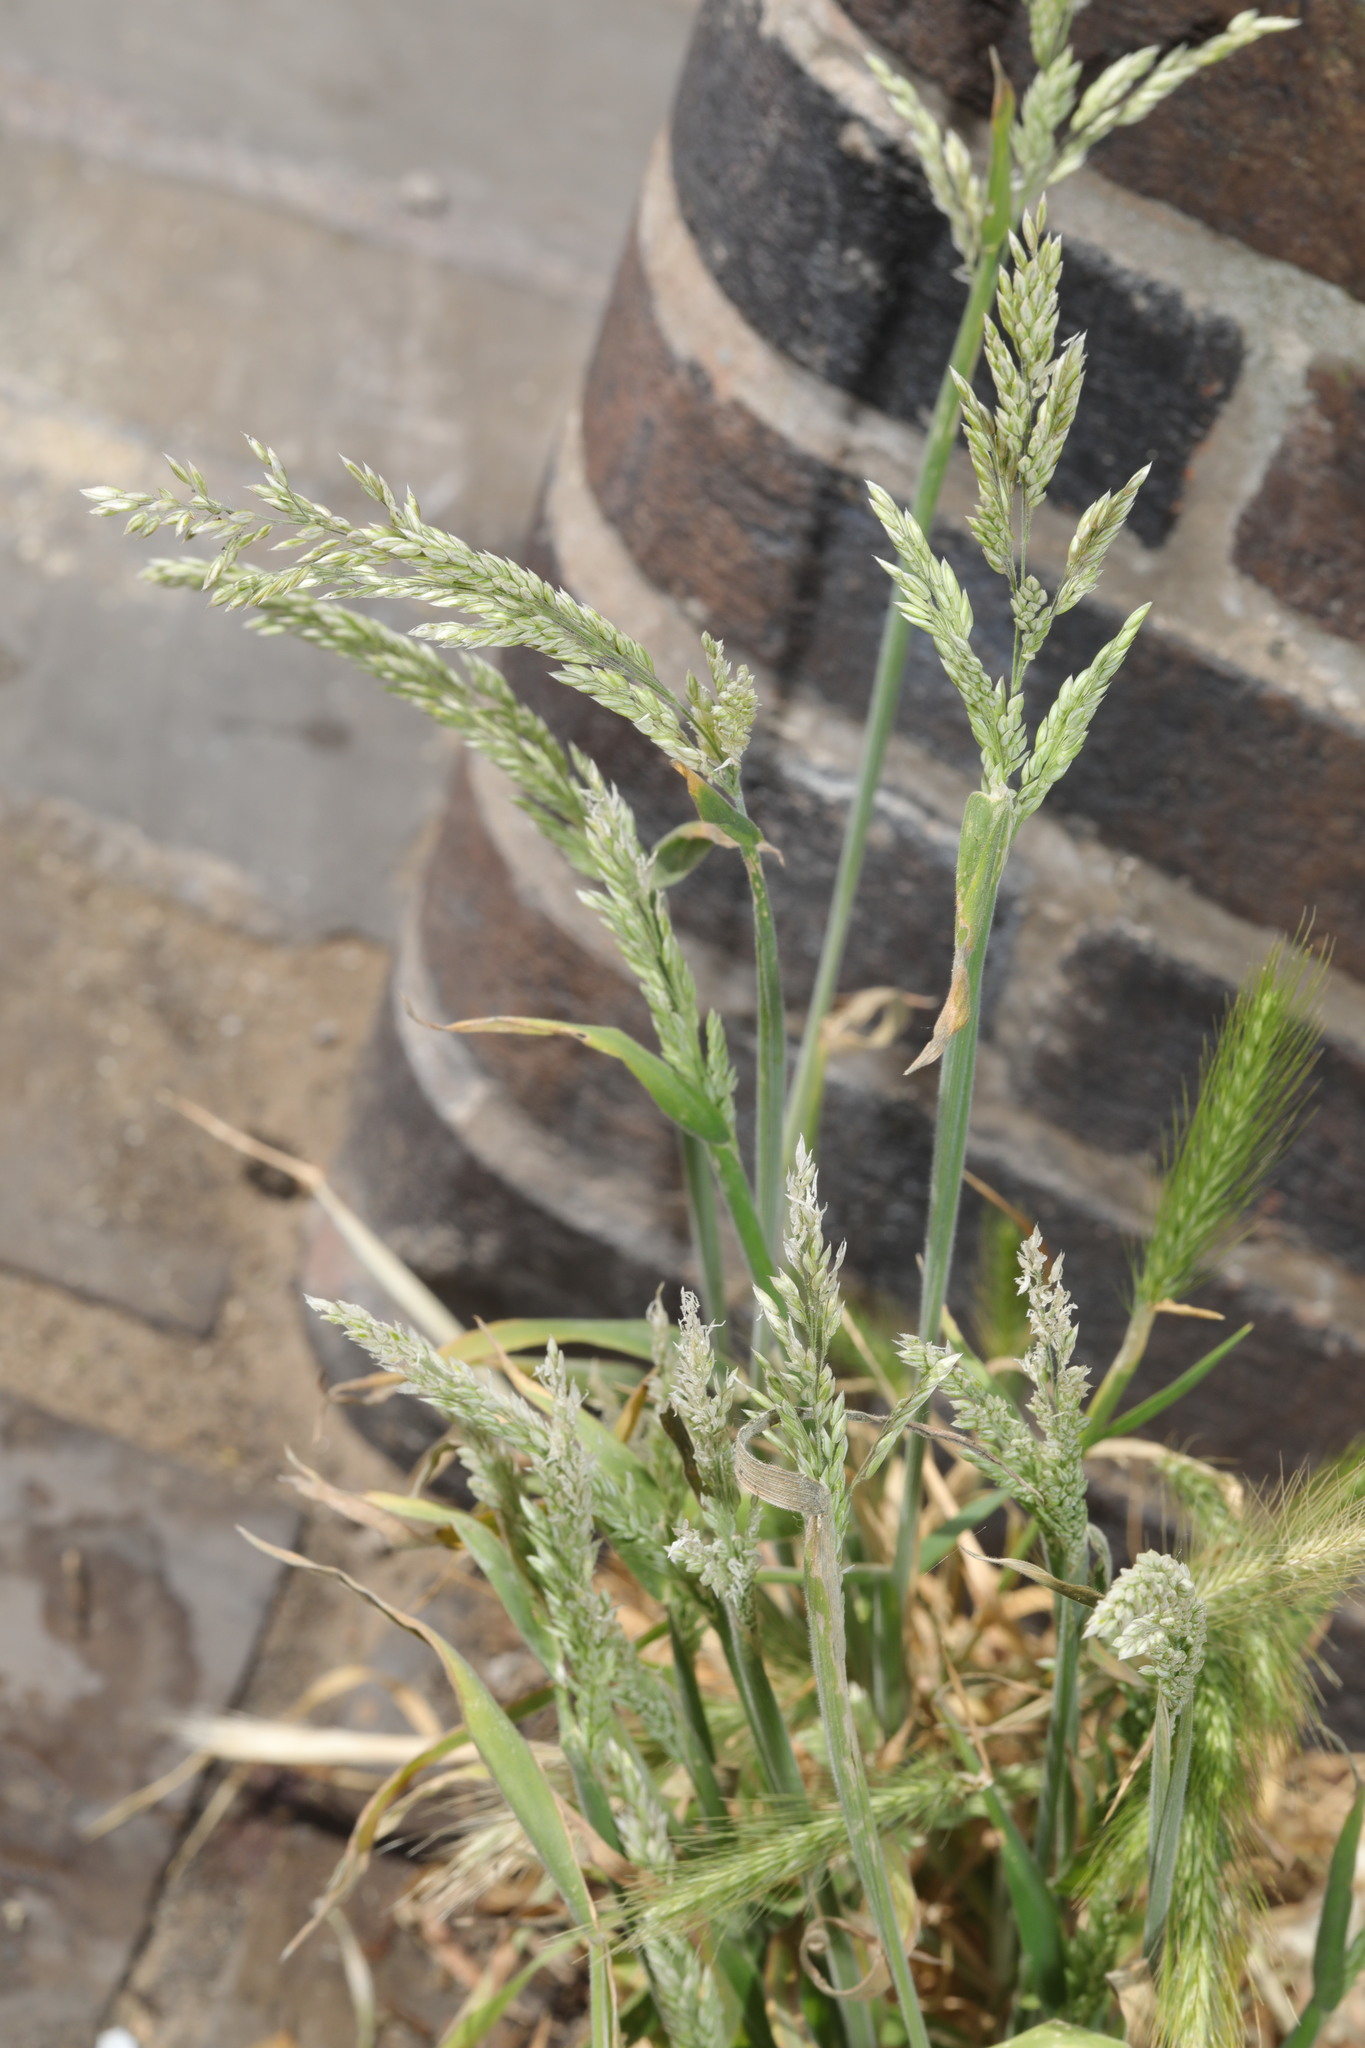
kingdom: Plantae
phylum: Tracheophyta
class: Liliopsida
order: Poales
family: Poaceae
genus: Holcus
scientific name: Holcus lanatus
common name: Yorkshire-fog
